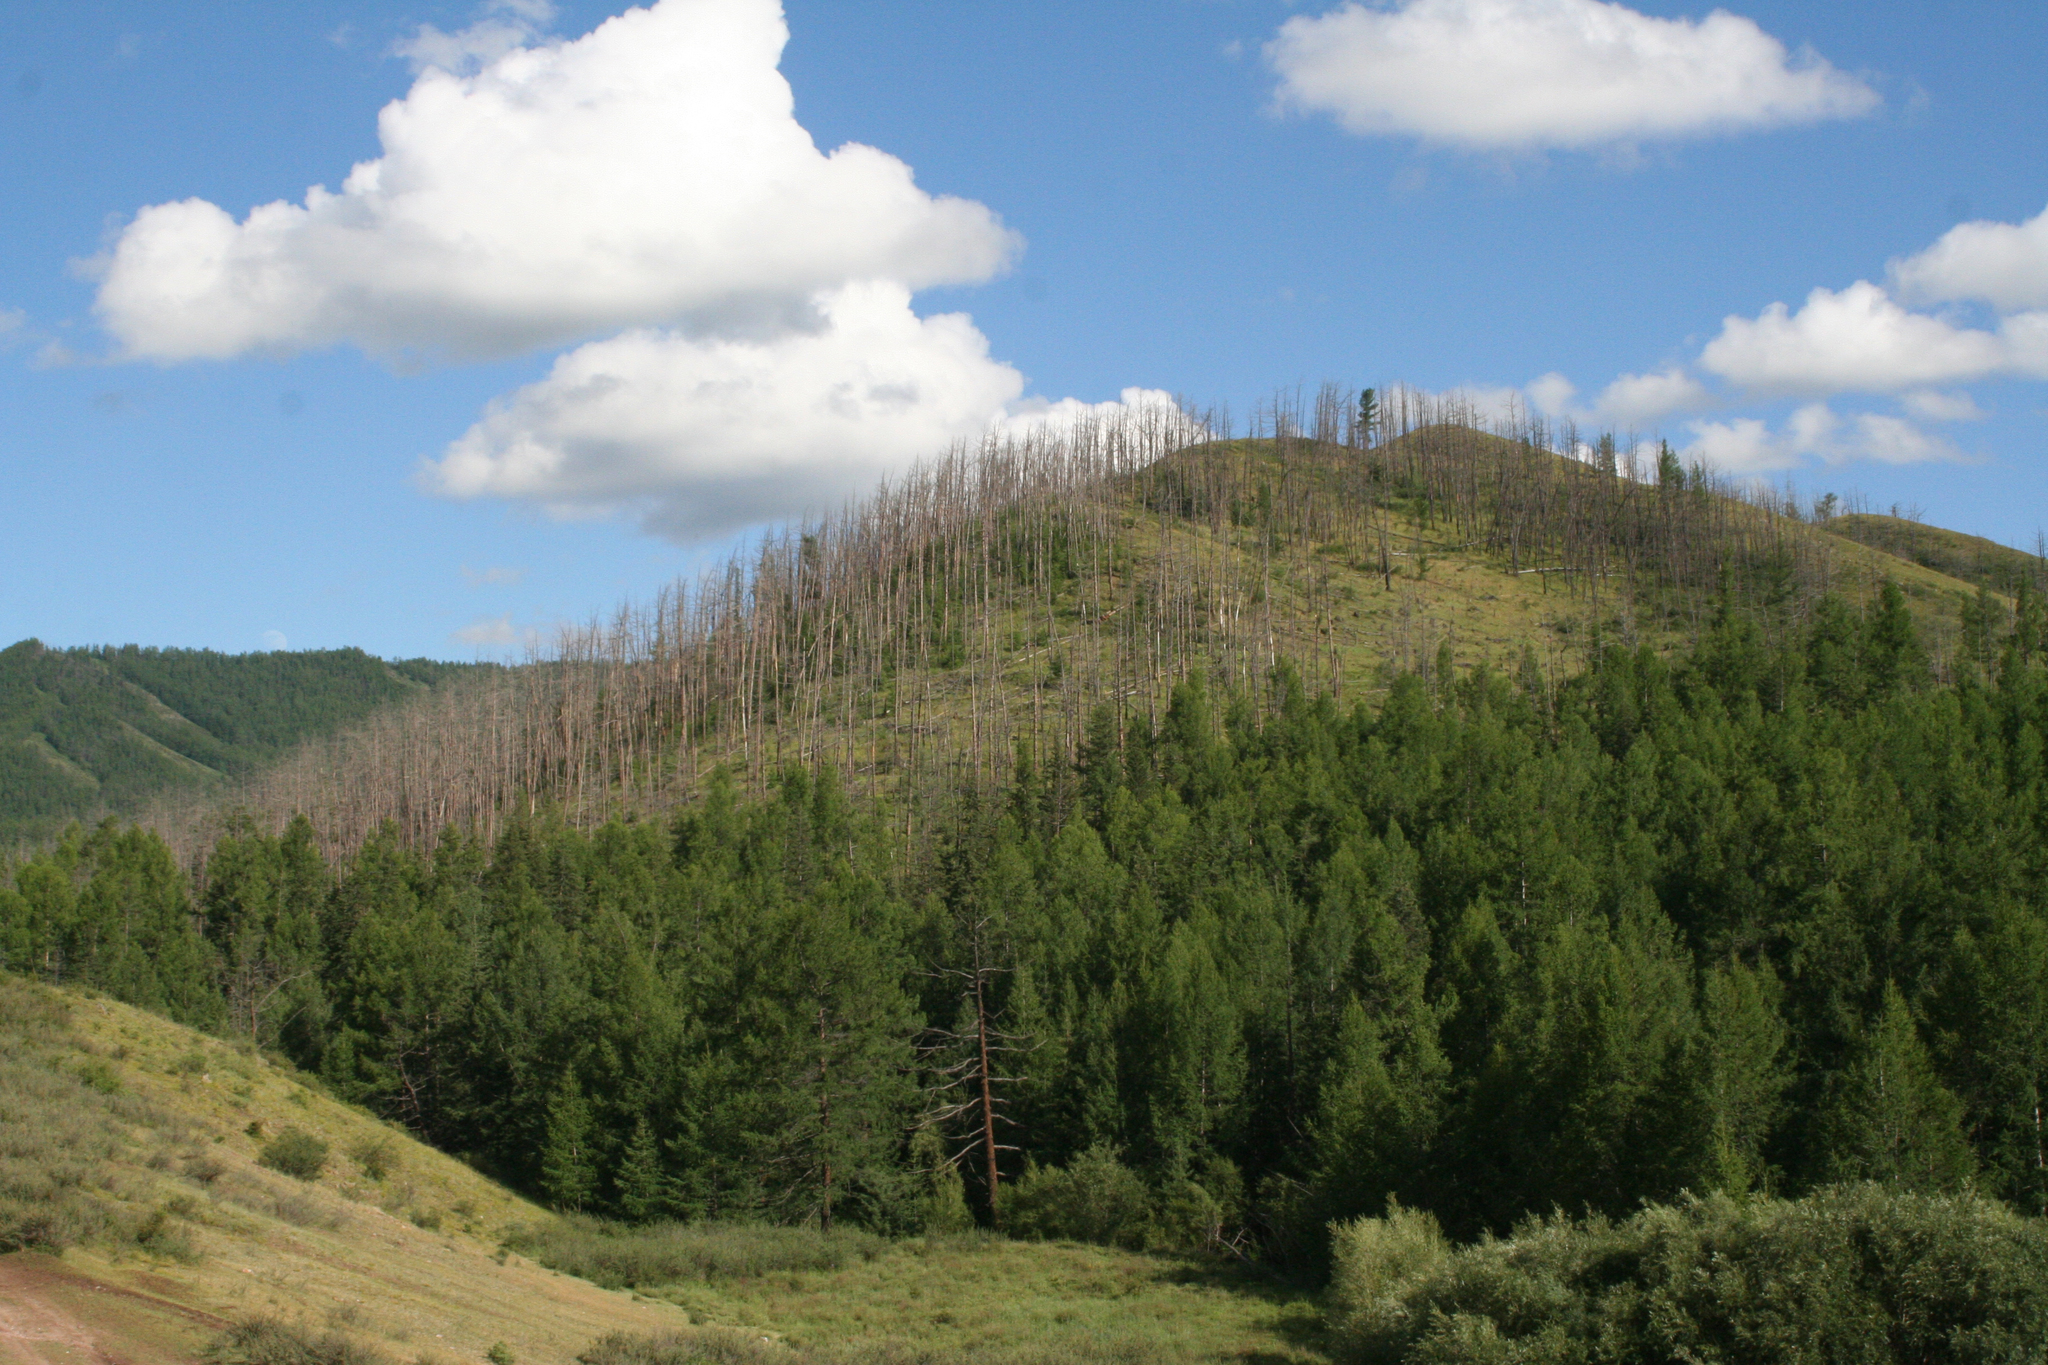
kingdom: Plantae
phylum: Tracheophyta
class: Pinopsida
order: Pinales
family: Pinaceae
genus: Larix
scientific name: Larix sibirica
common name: Siberian larch
